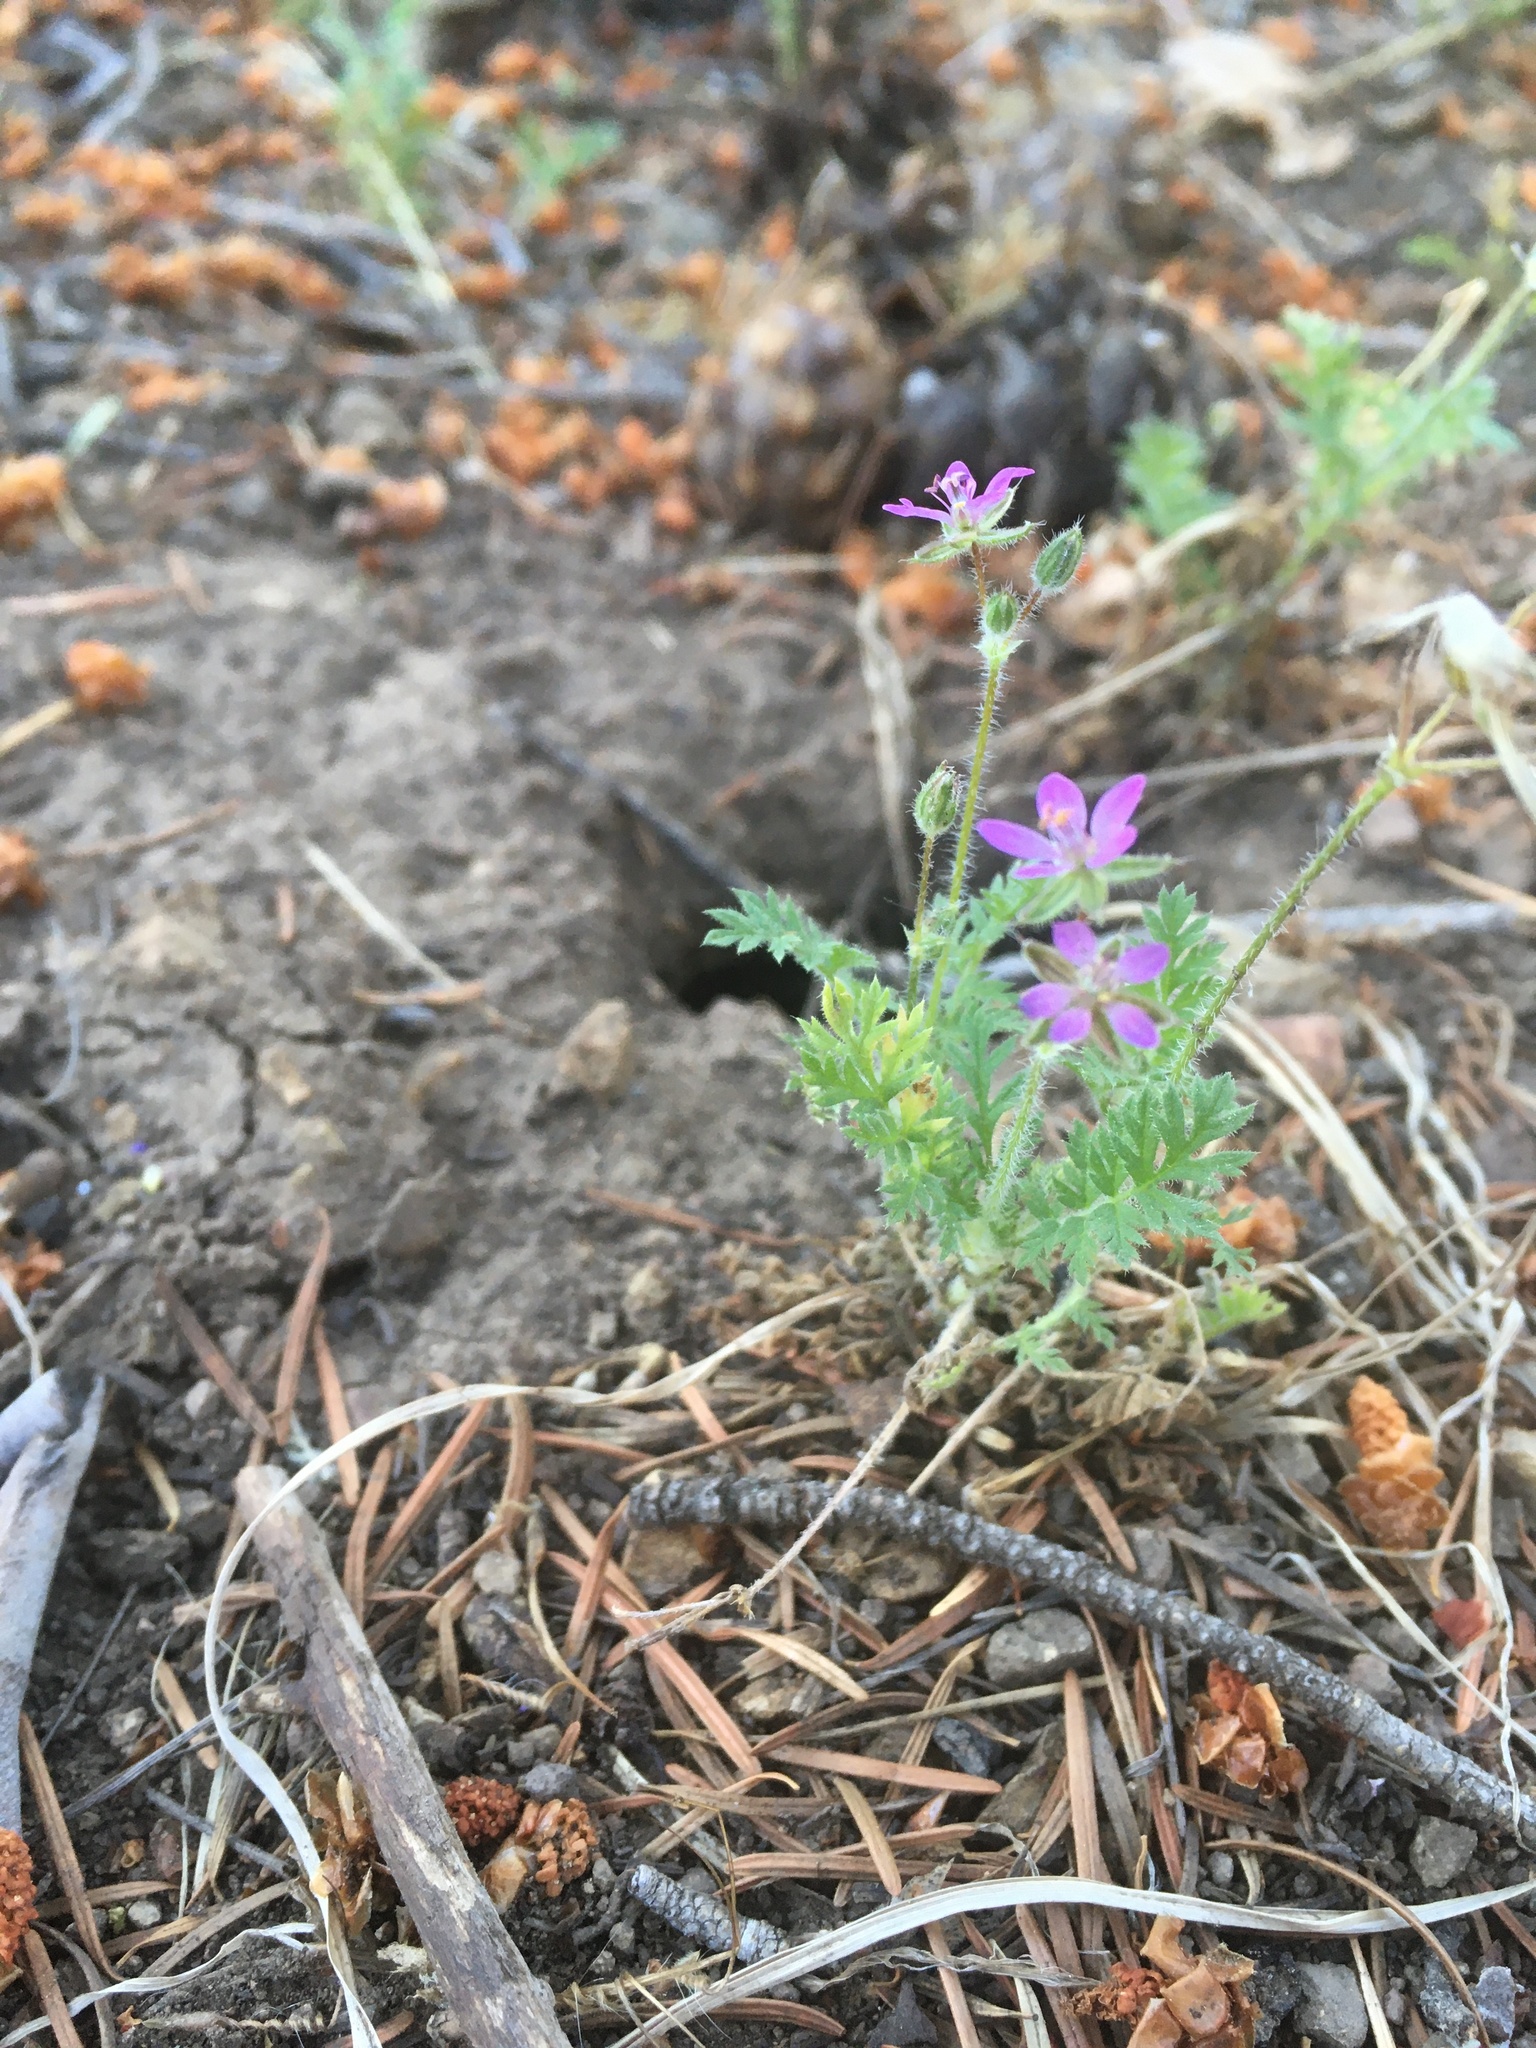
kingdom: Plantae
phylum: Tracheophyta
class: Magnoliopsida
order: Geraniales
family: Geraniaceae
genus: Erodium
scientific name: Erodium cicutarium
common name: Common stork's-bill
